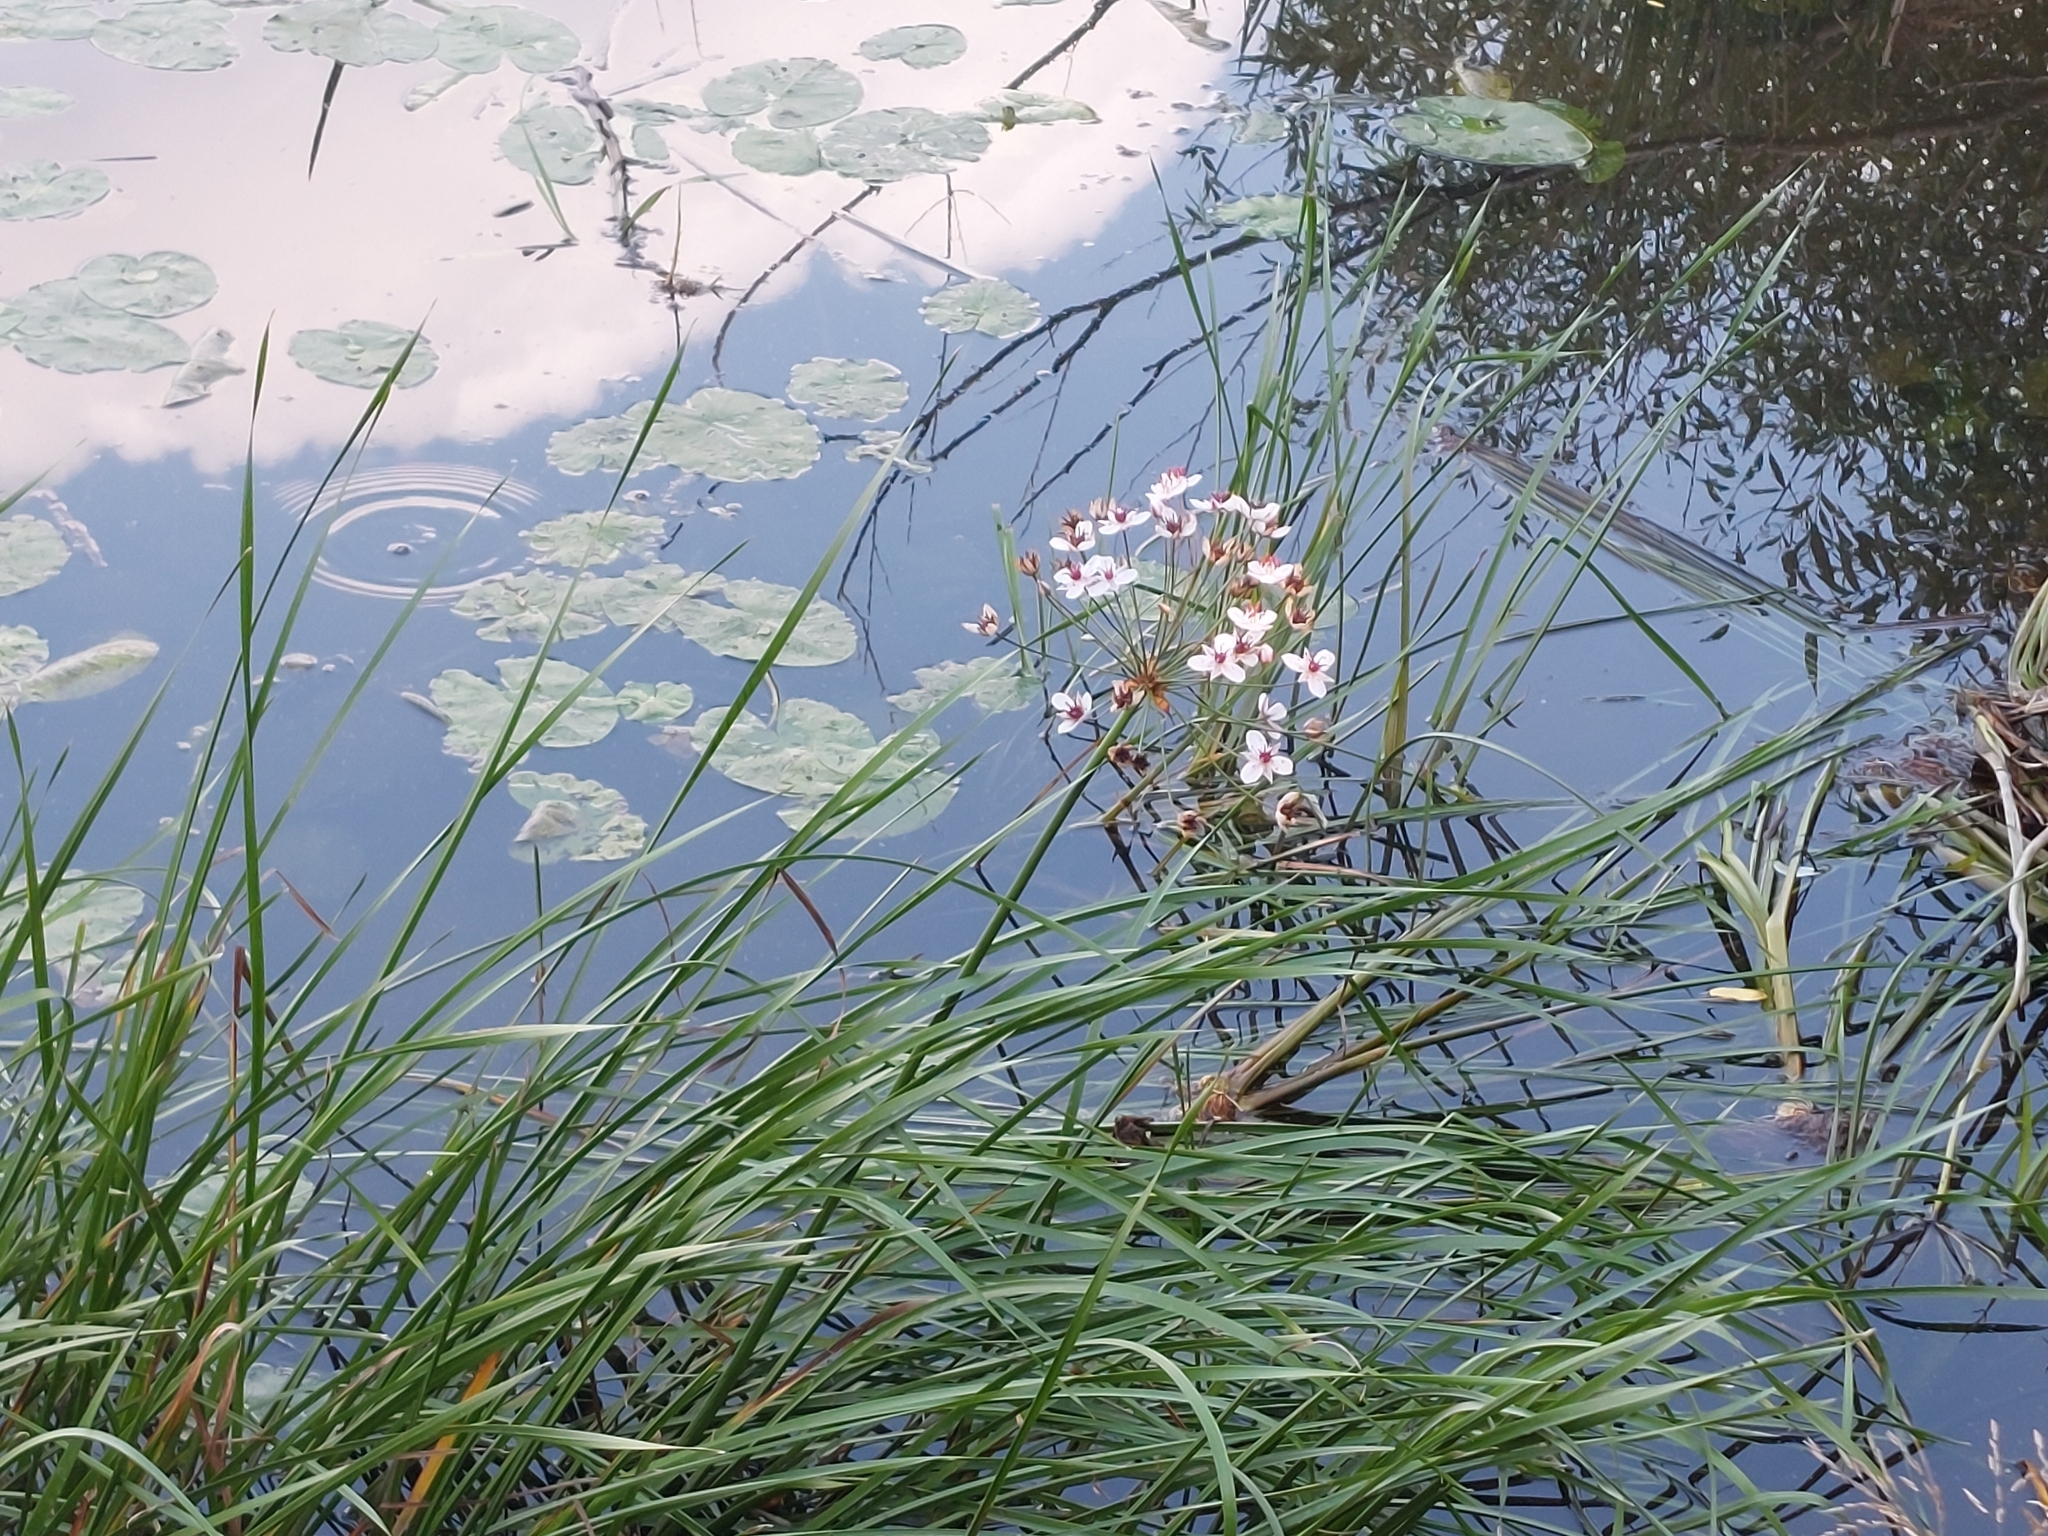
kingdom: Plantae
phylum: Tracheophyta
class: Liliopsida
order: Alismatales
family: Butomaceae
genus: Butomus
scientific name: Butomus umbellatus
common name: Flowering-rush
